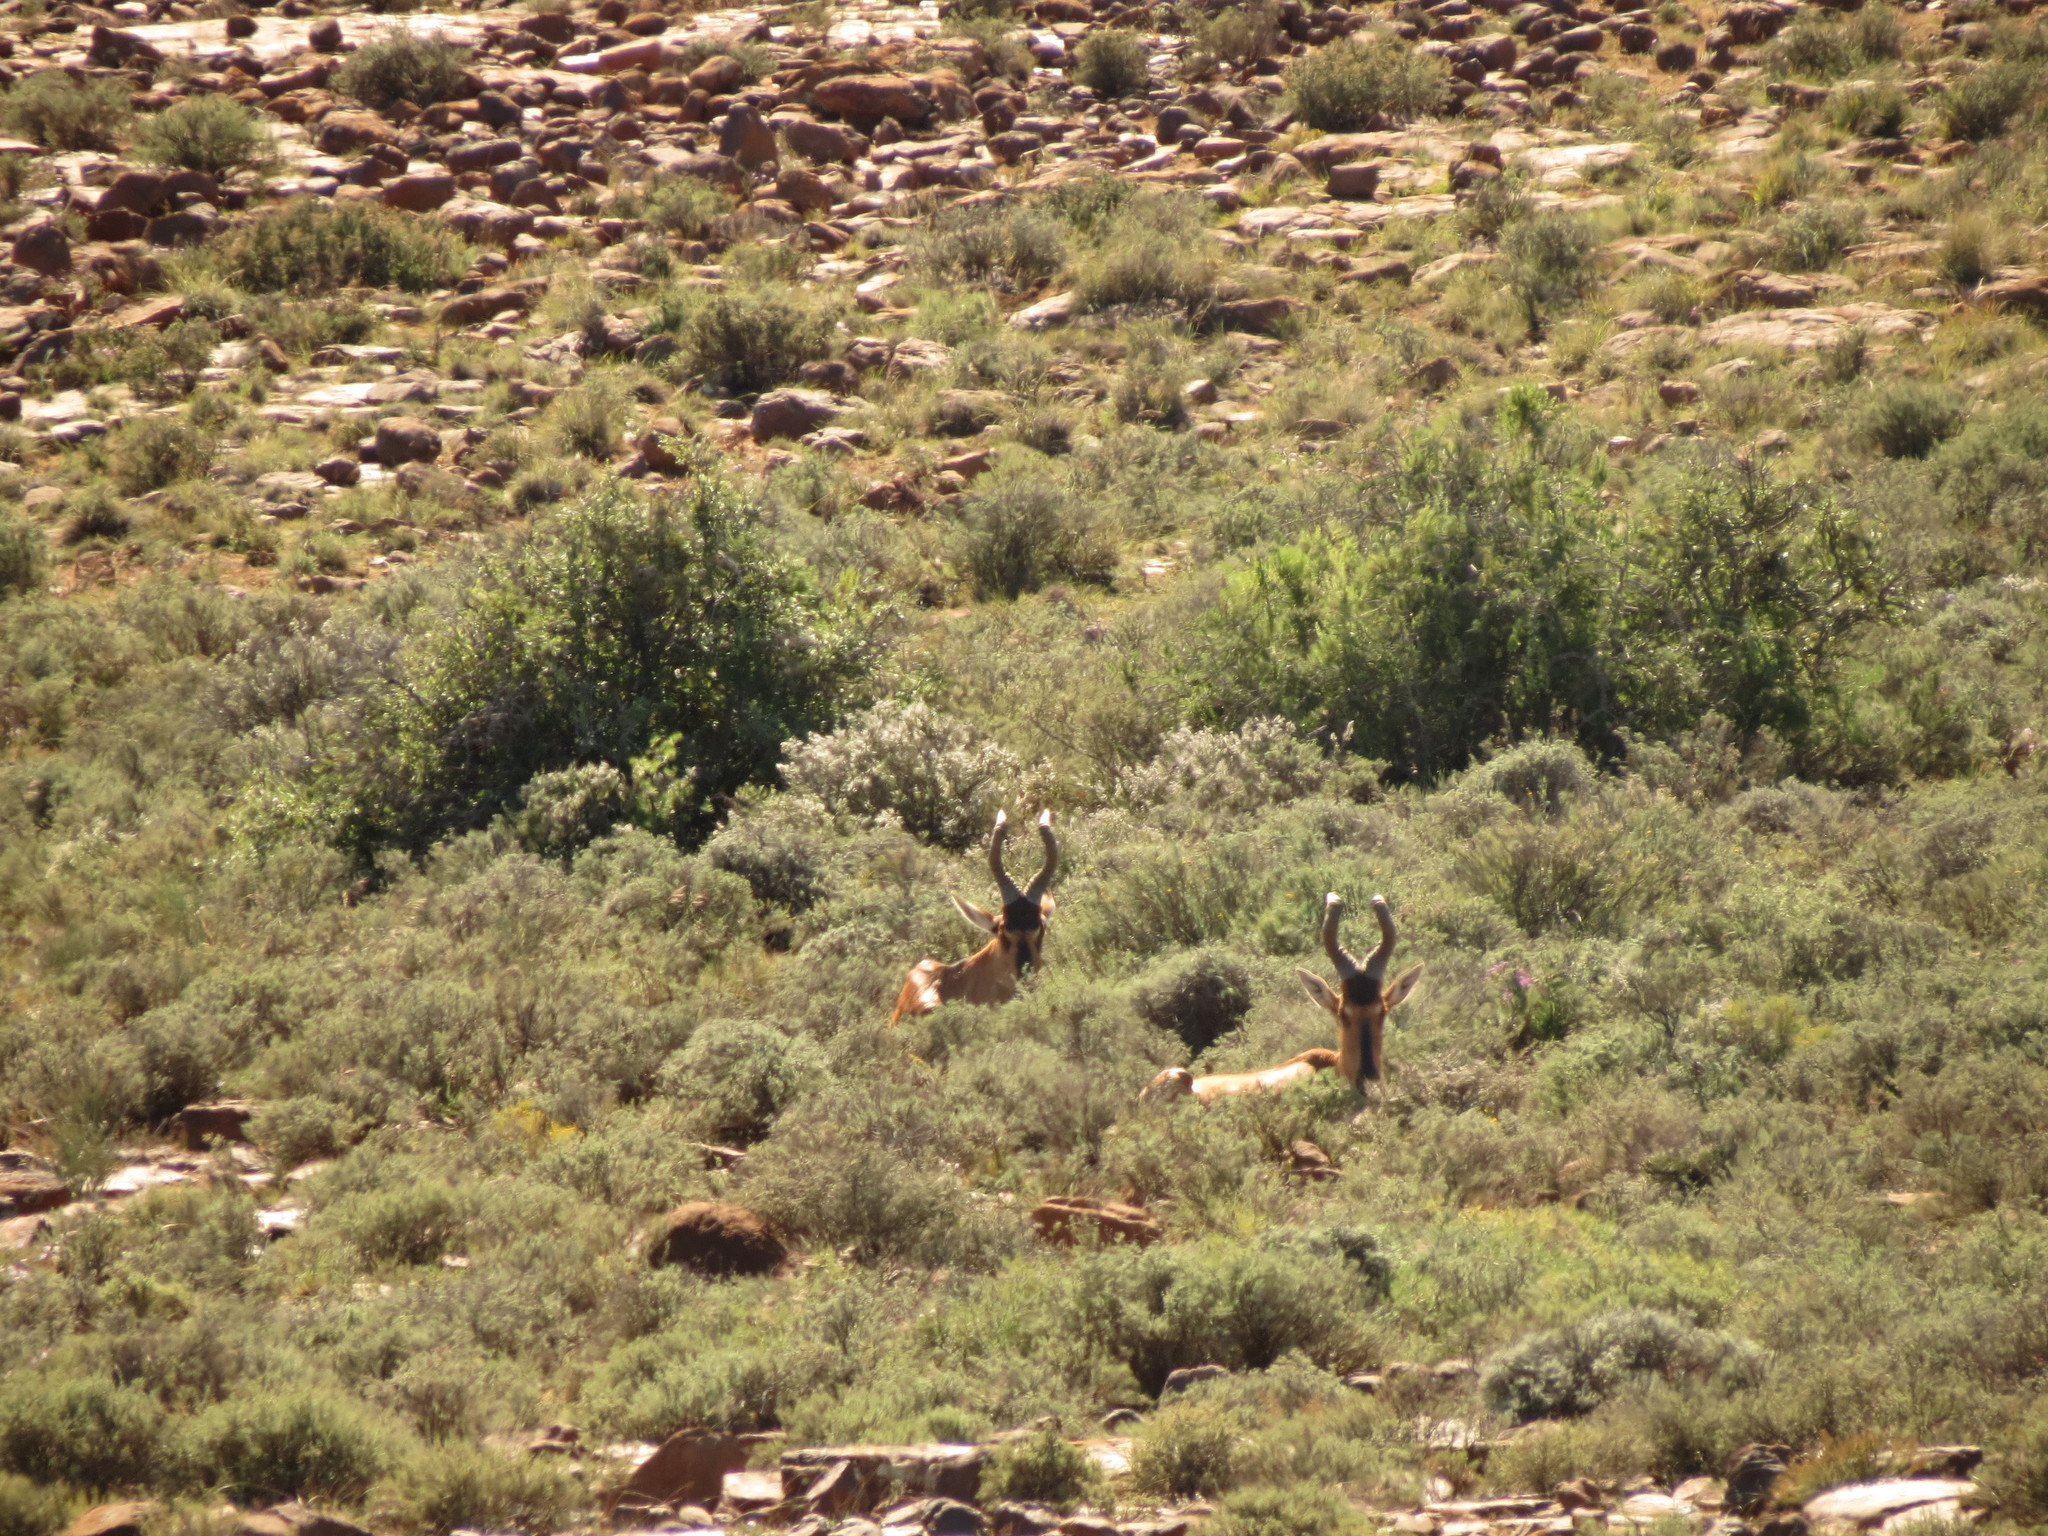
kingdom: Animalia
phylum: Chordata
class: Mammalia
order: Artiodactyla
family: Bovidae
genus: Alcelaphus
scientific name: Alcelaphus caama
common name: Red hartebeest
